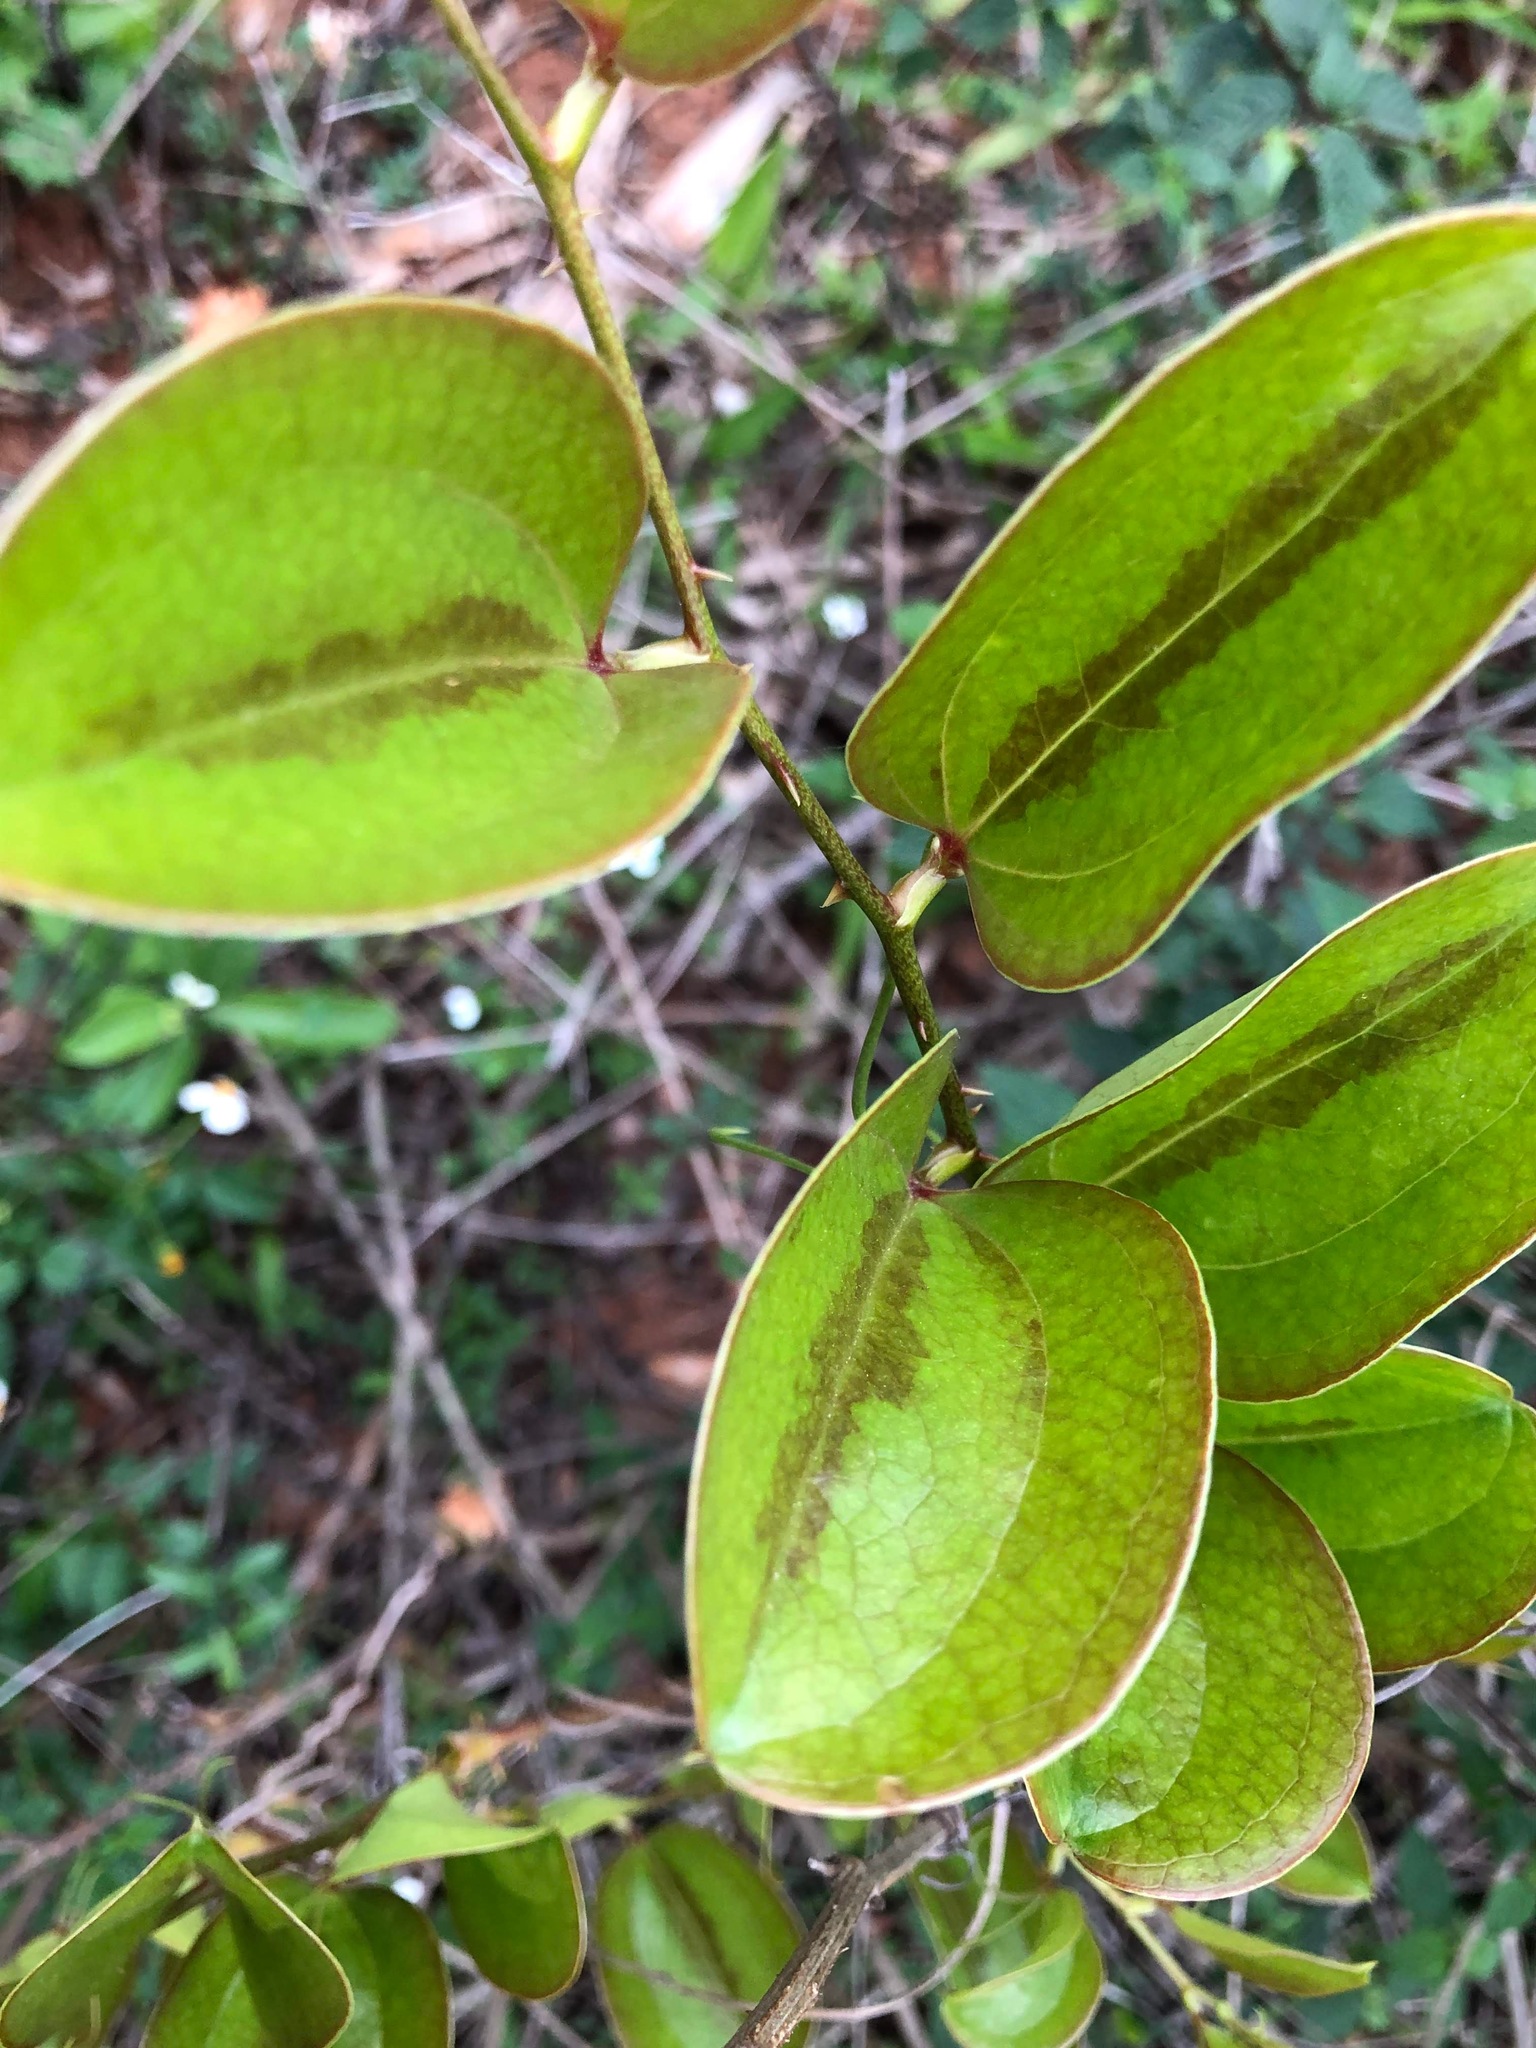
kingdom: Plantae
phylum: Tracheophyta
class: Liliopsida
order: Liliales
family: Smilacaceae
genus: Smilax
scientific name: Smilax china
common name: Chinaroot
